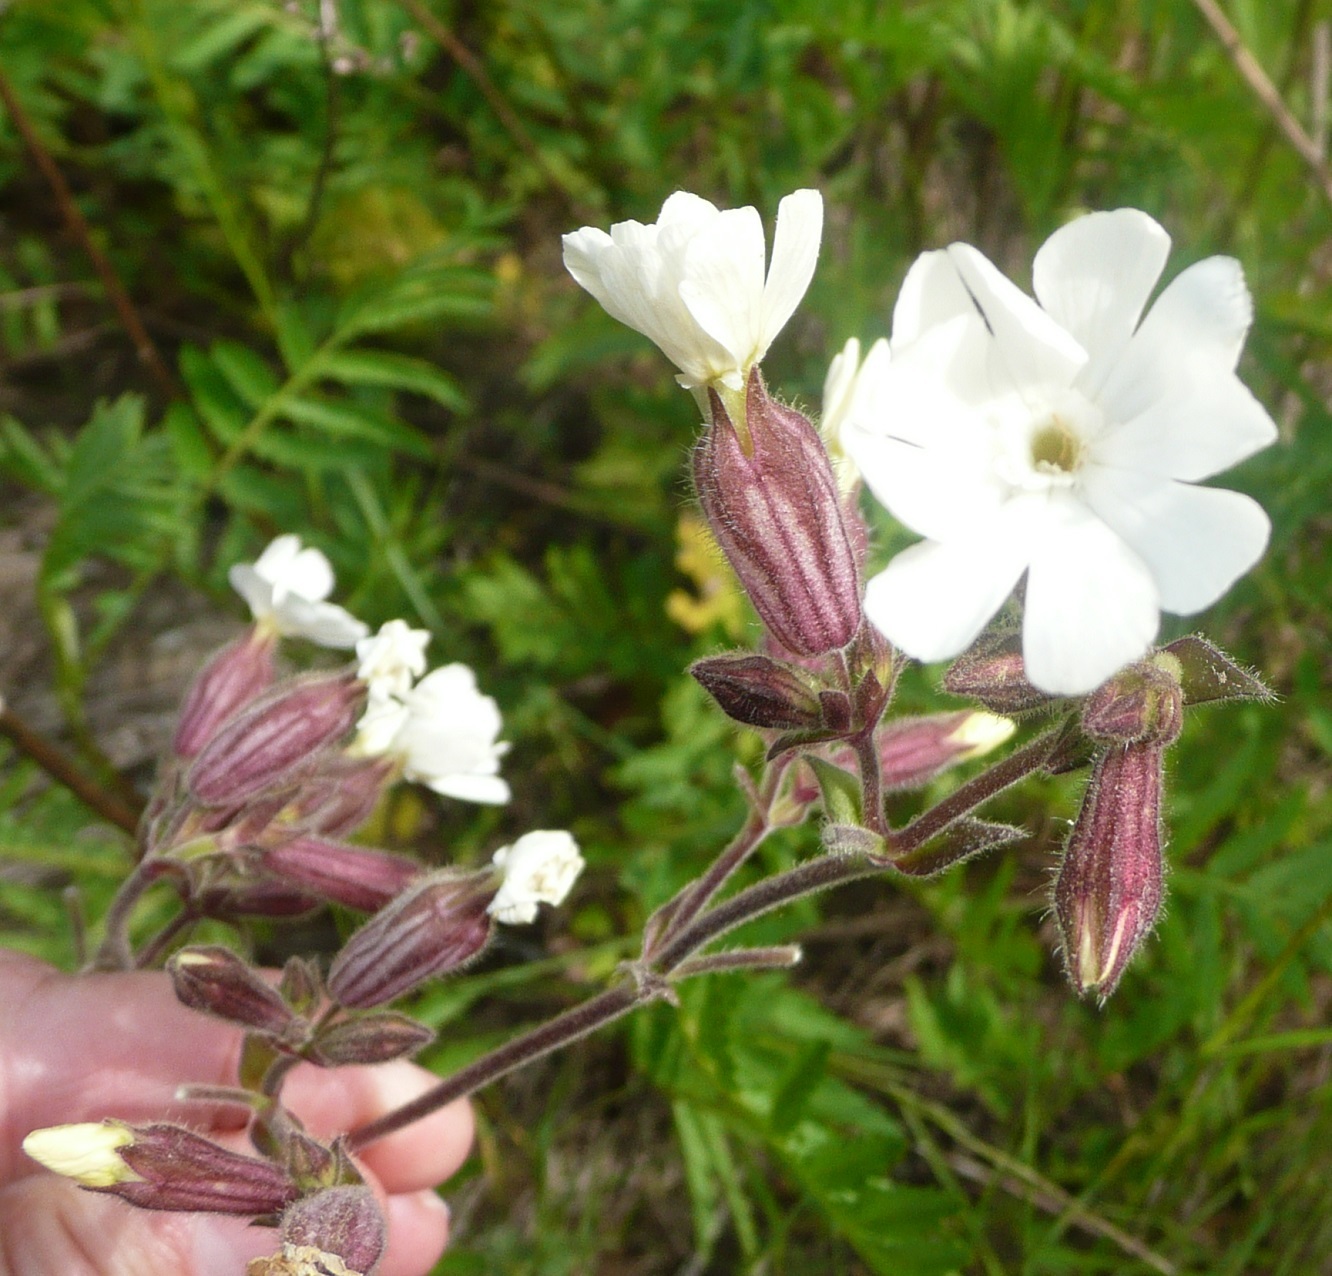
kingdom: Plantae
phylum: Tracheophyta
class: Magnoliopsida
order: Caryophyllales
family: Caryophyllaceae
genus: Silene
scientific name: Silene latifolia
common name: White campion
